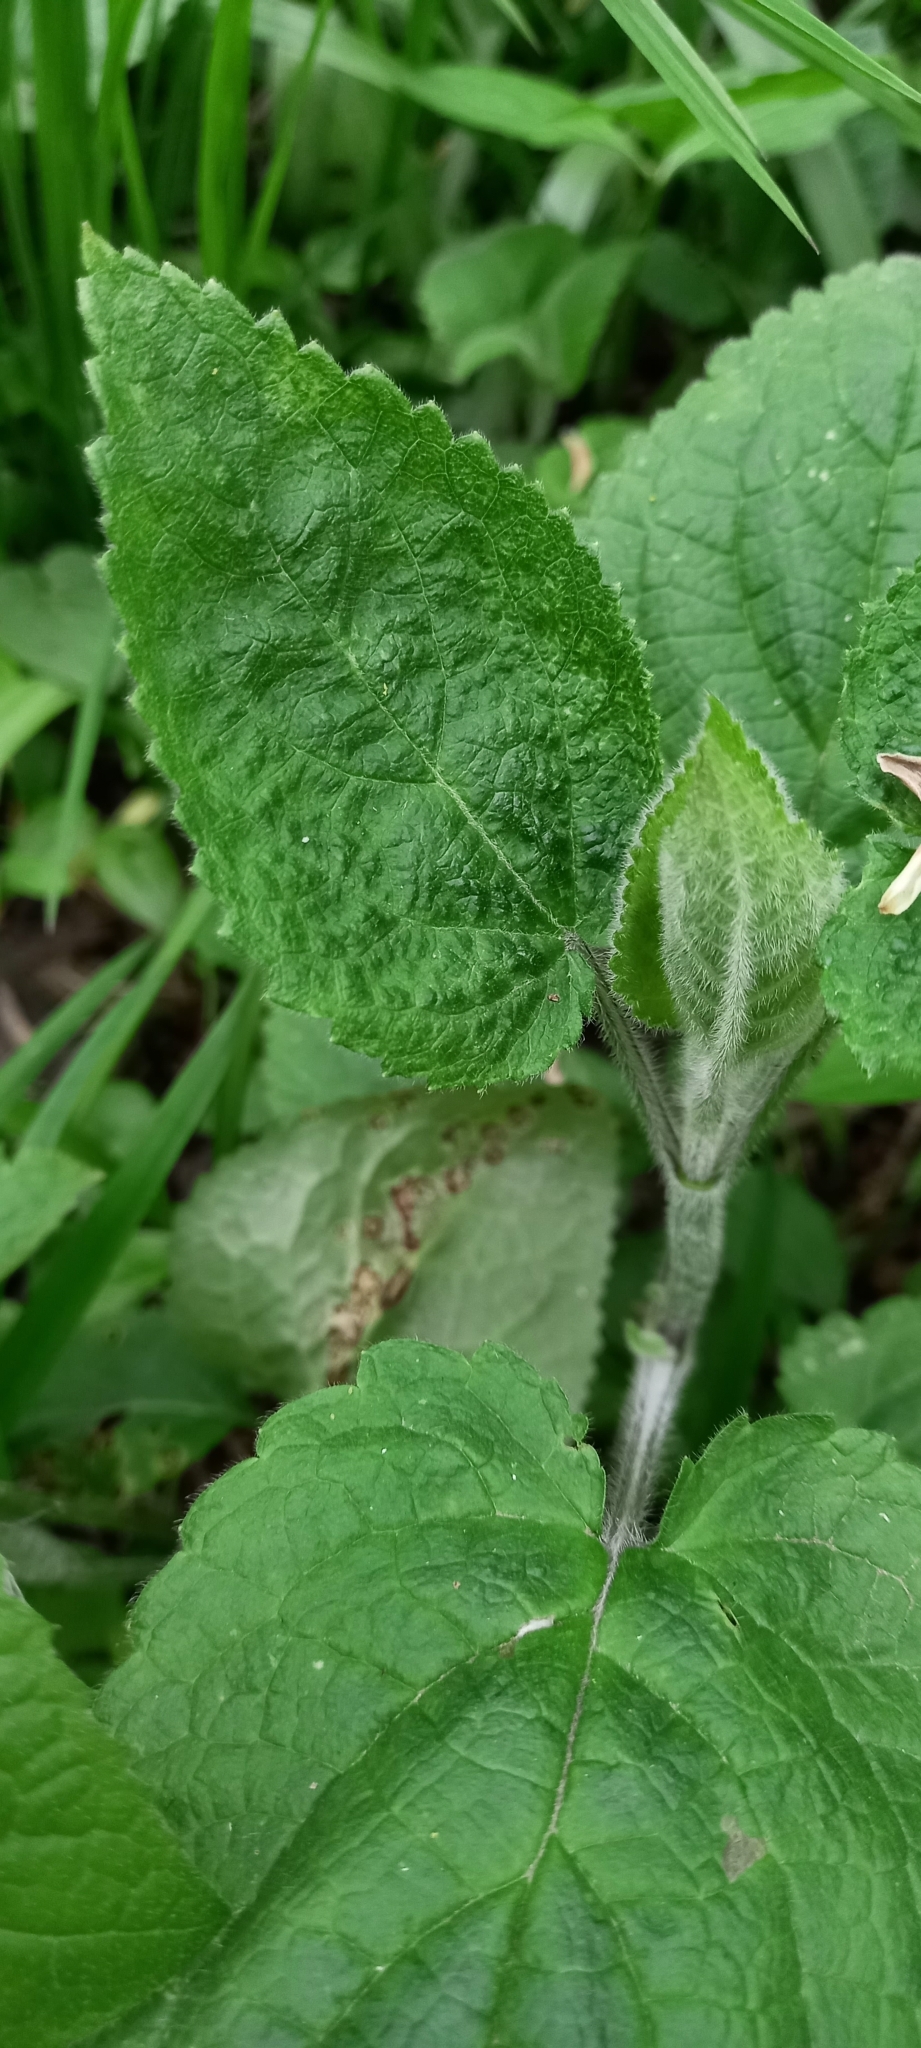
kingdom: Plantae
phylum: Tracheophyta
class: Magnoliopsida
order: Lamiales
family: Lamiaceae
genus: Stachys
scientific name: Stachys sylvatica
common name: Hedge woundwort
